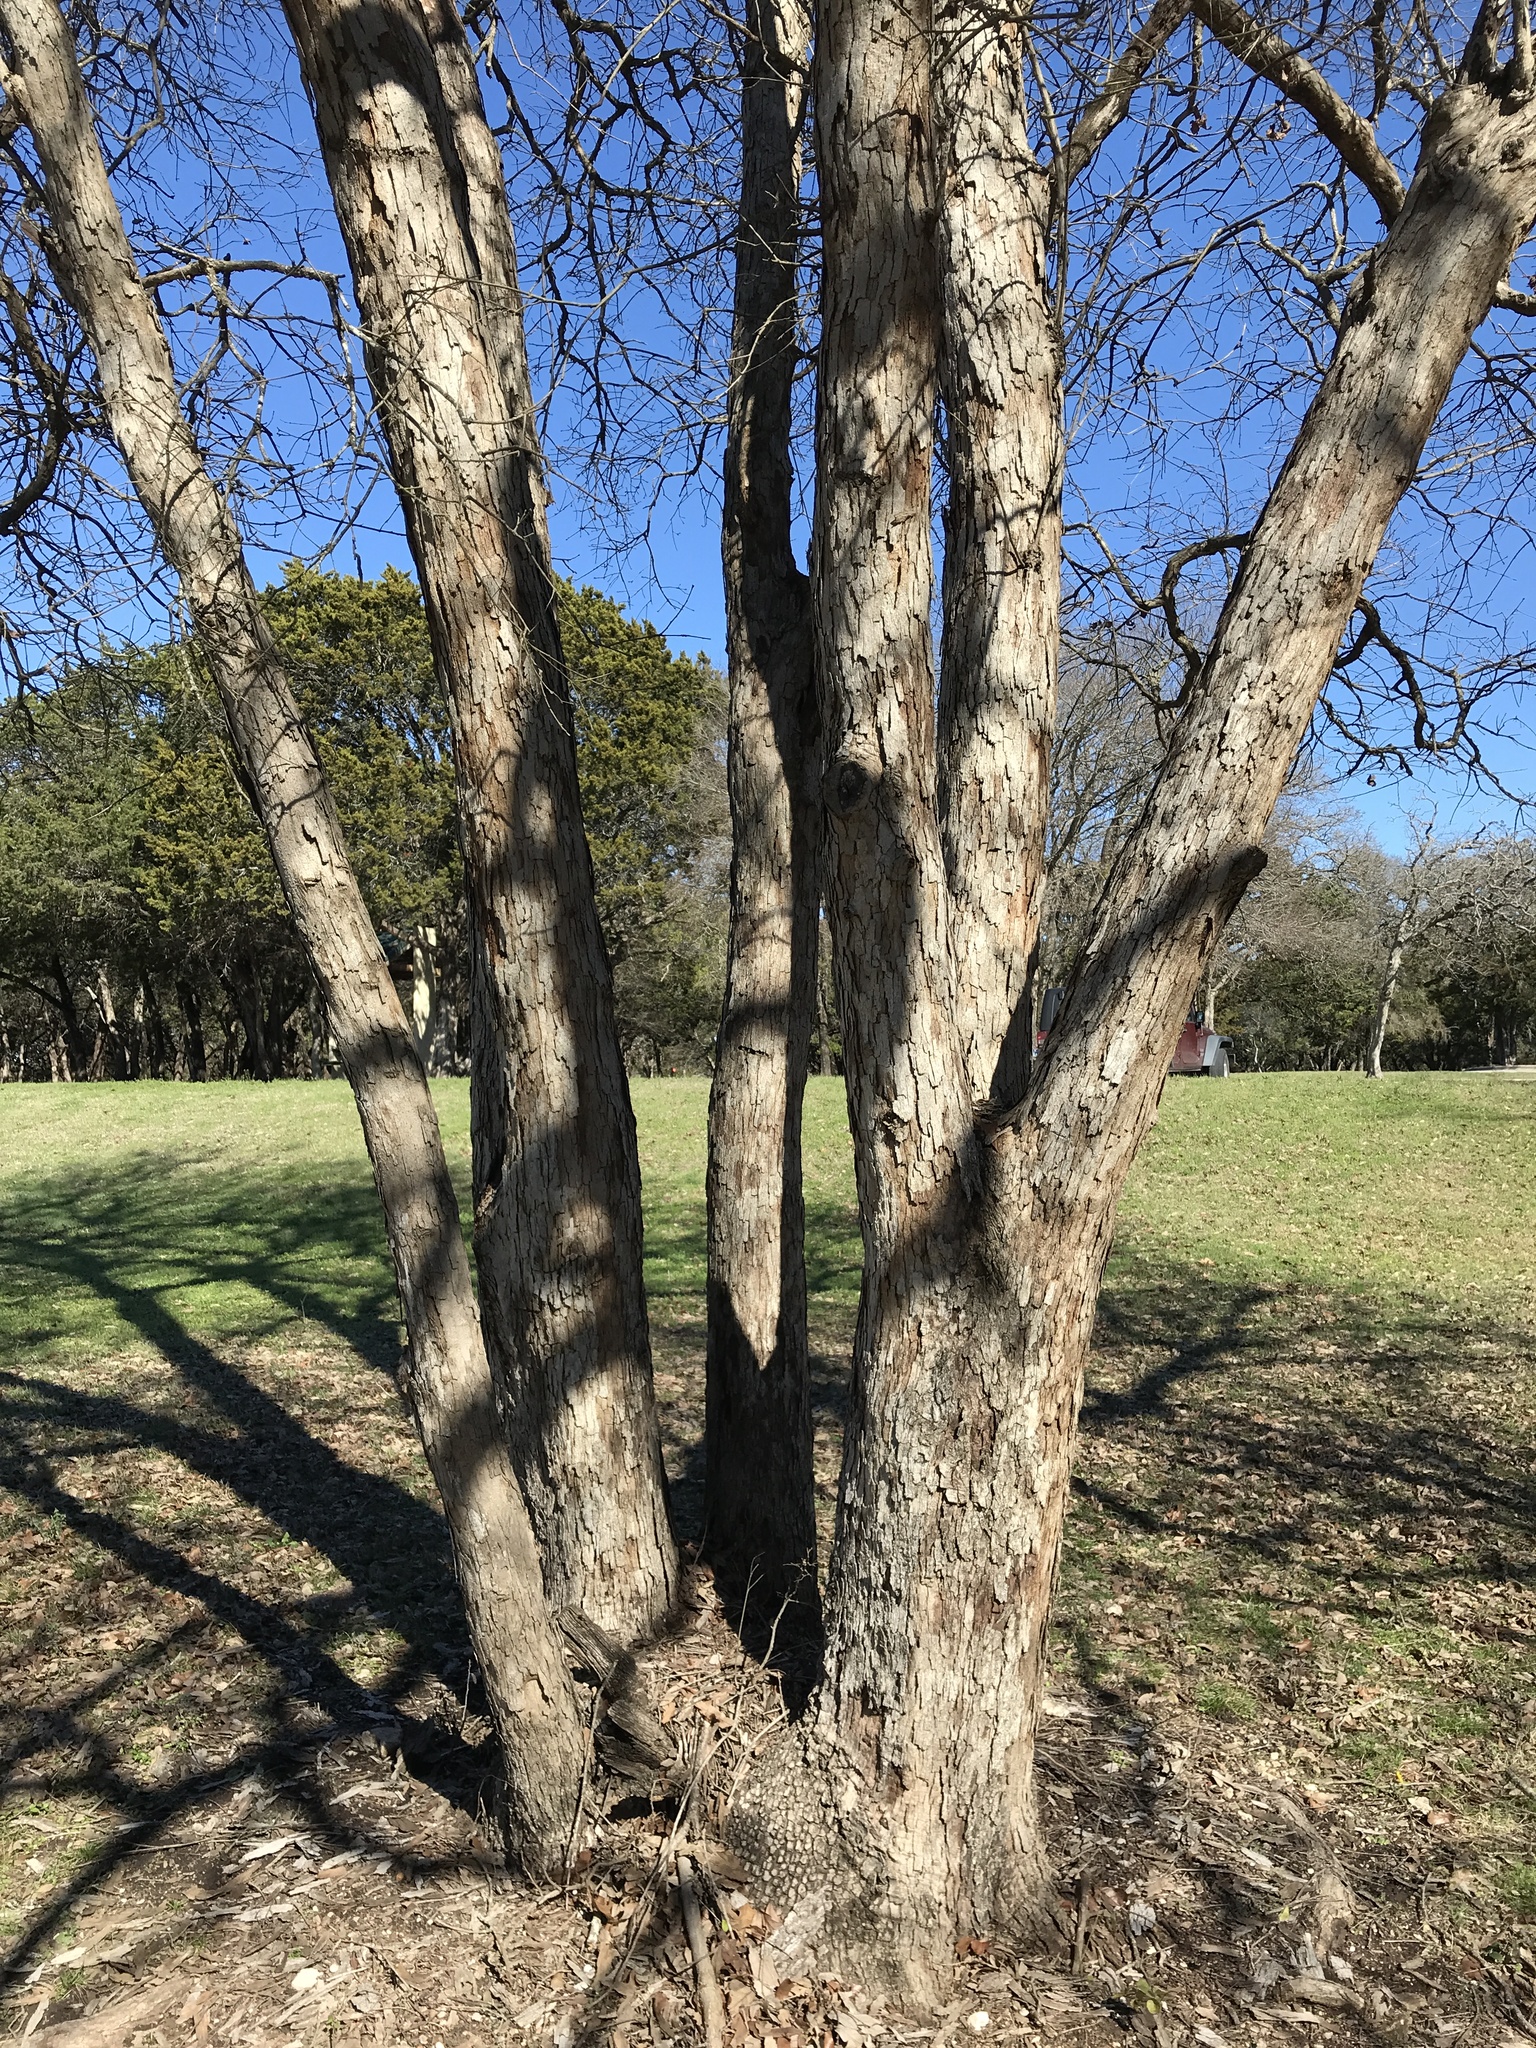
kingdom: Plantae
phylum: Tracheophyta
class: Magnoliopsida
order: Fagales
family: Fagaceae
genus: Quercus
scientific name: Quercus sinuata
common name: Durand oak
